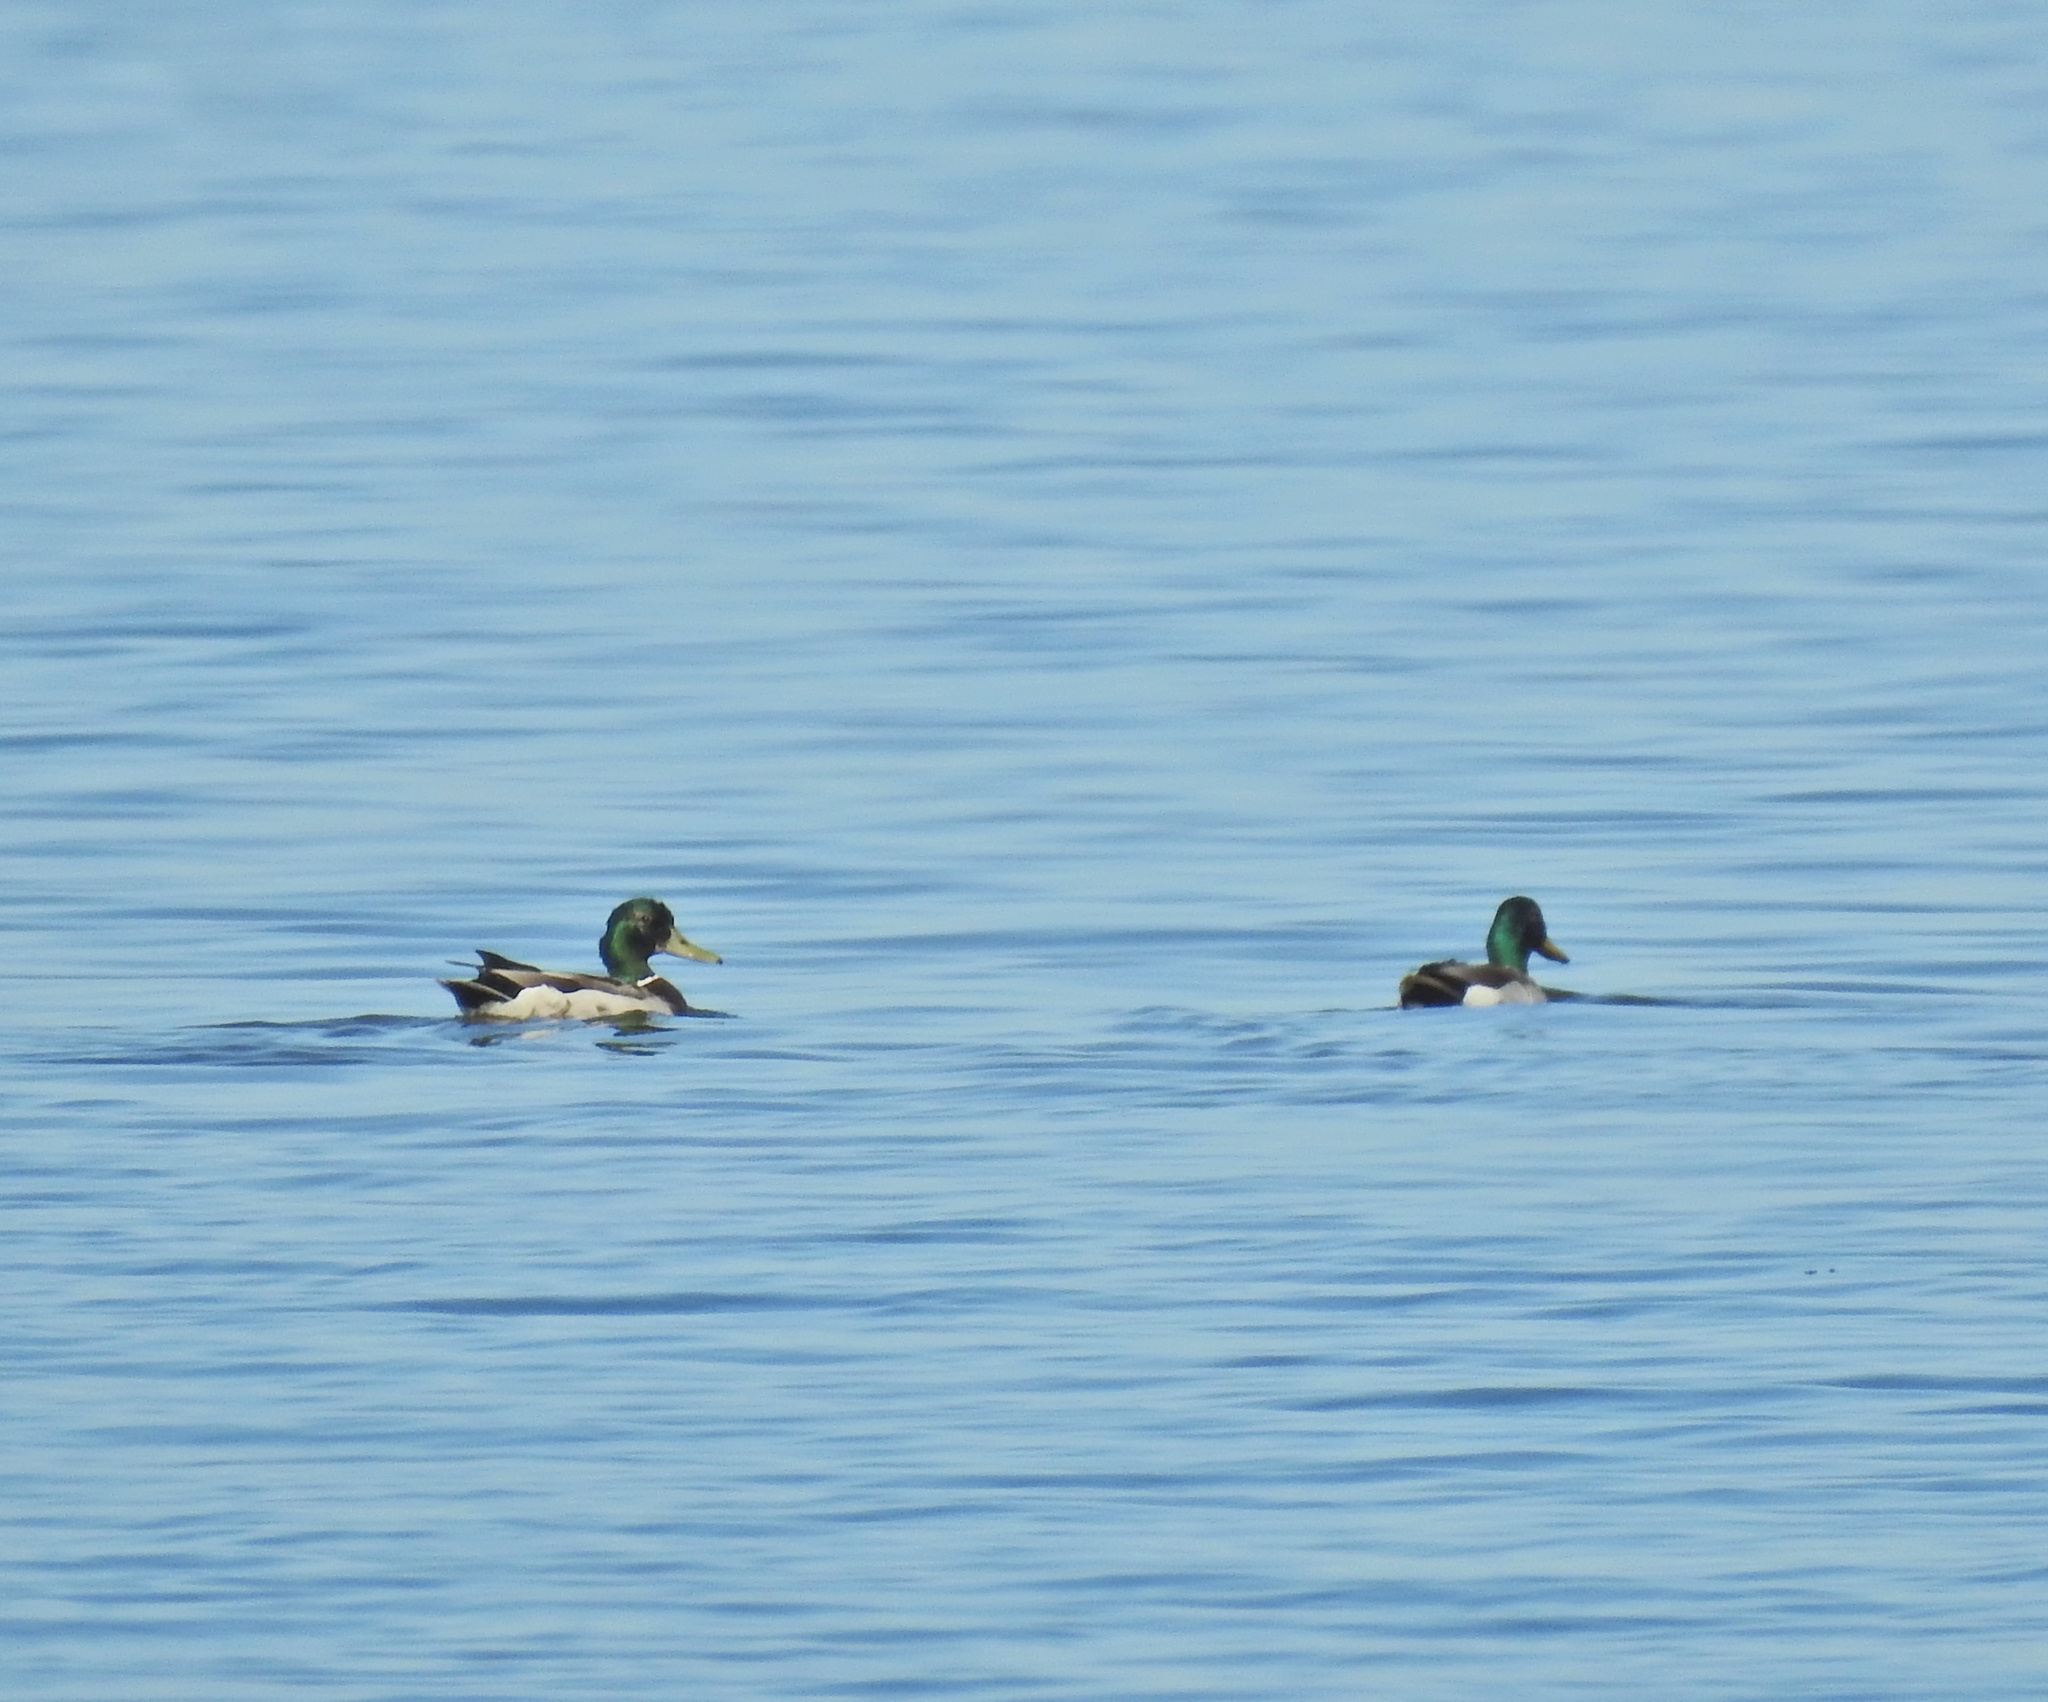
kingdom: Animalia
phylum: Chordata
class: Aves
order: Anseriformes
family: Anatidae
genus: Anas
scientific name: Anas platyrhynchos
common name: Mallard
